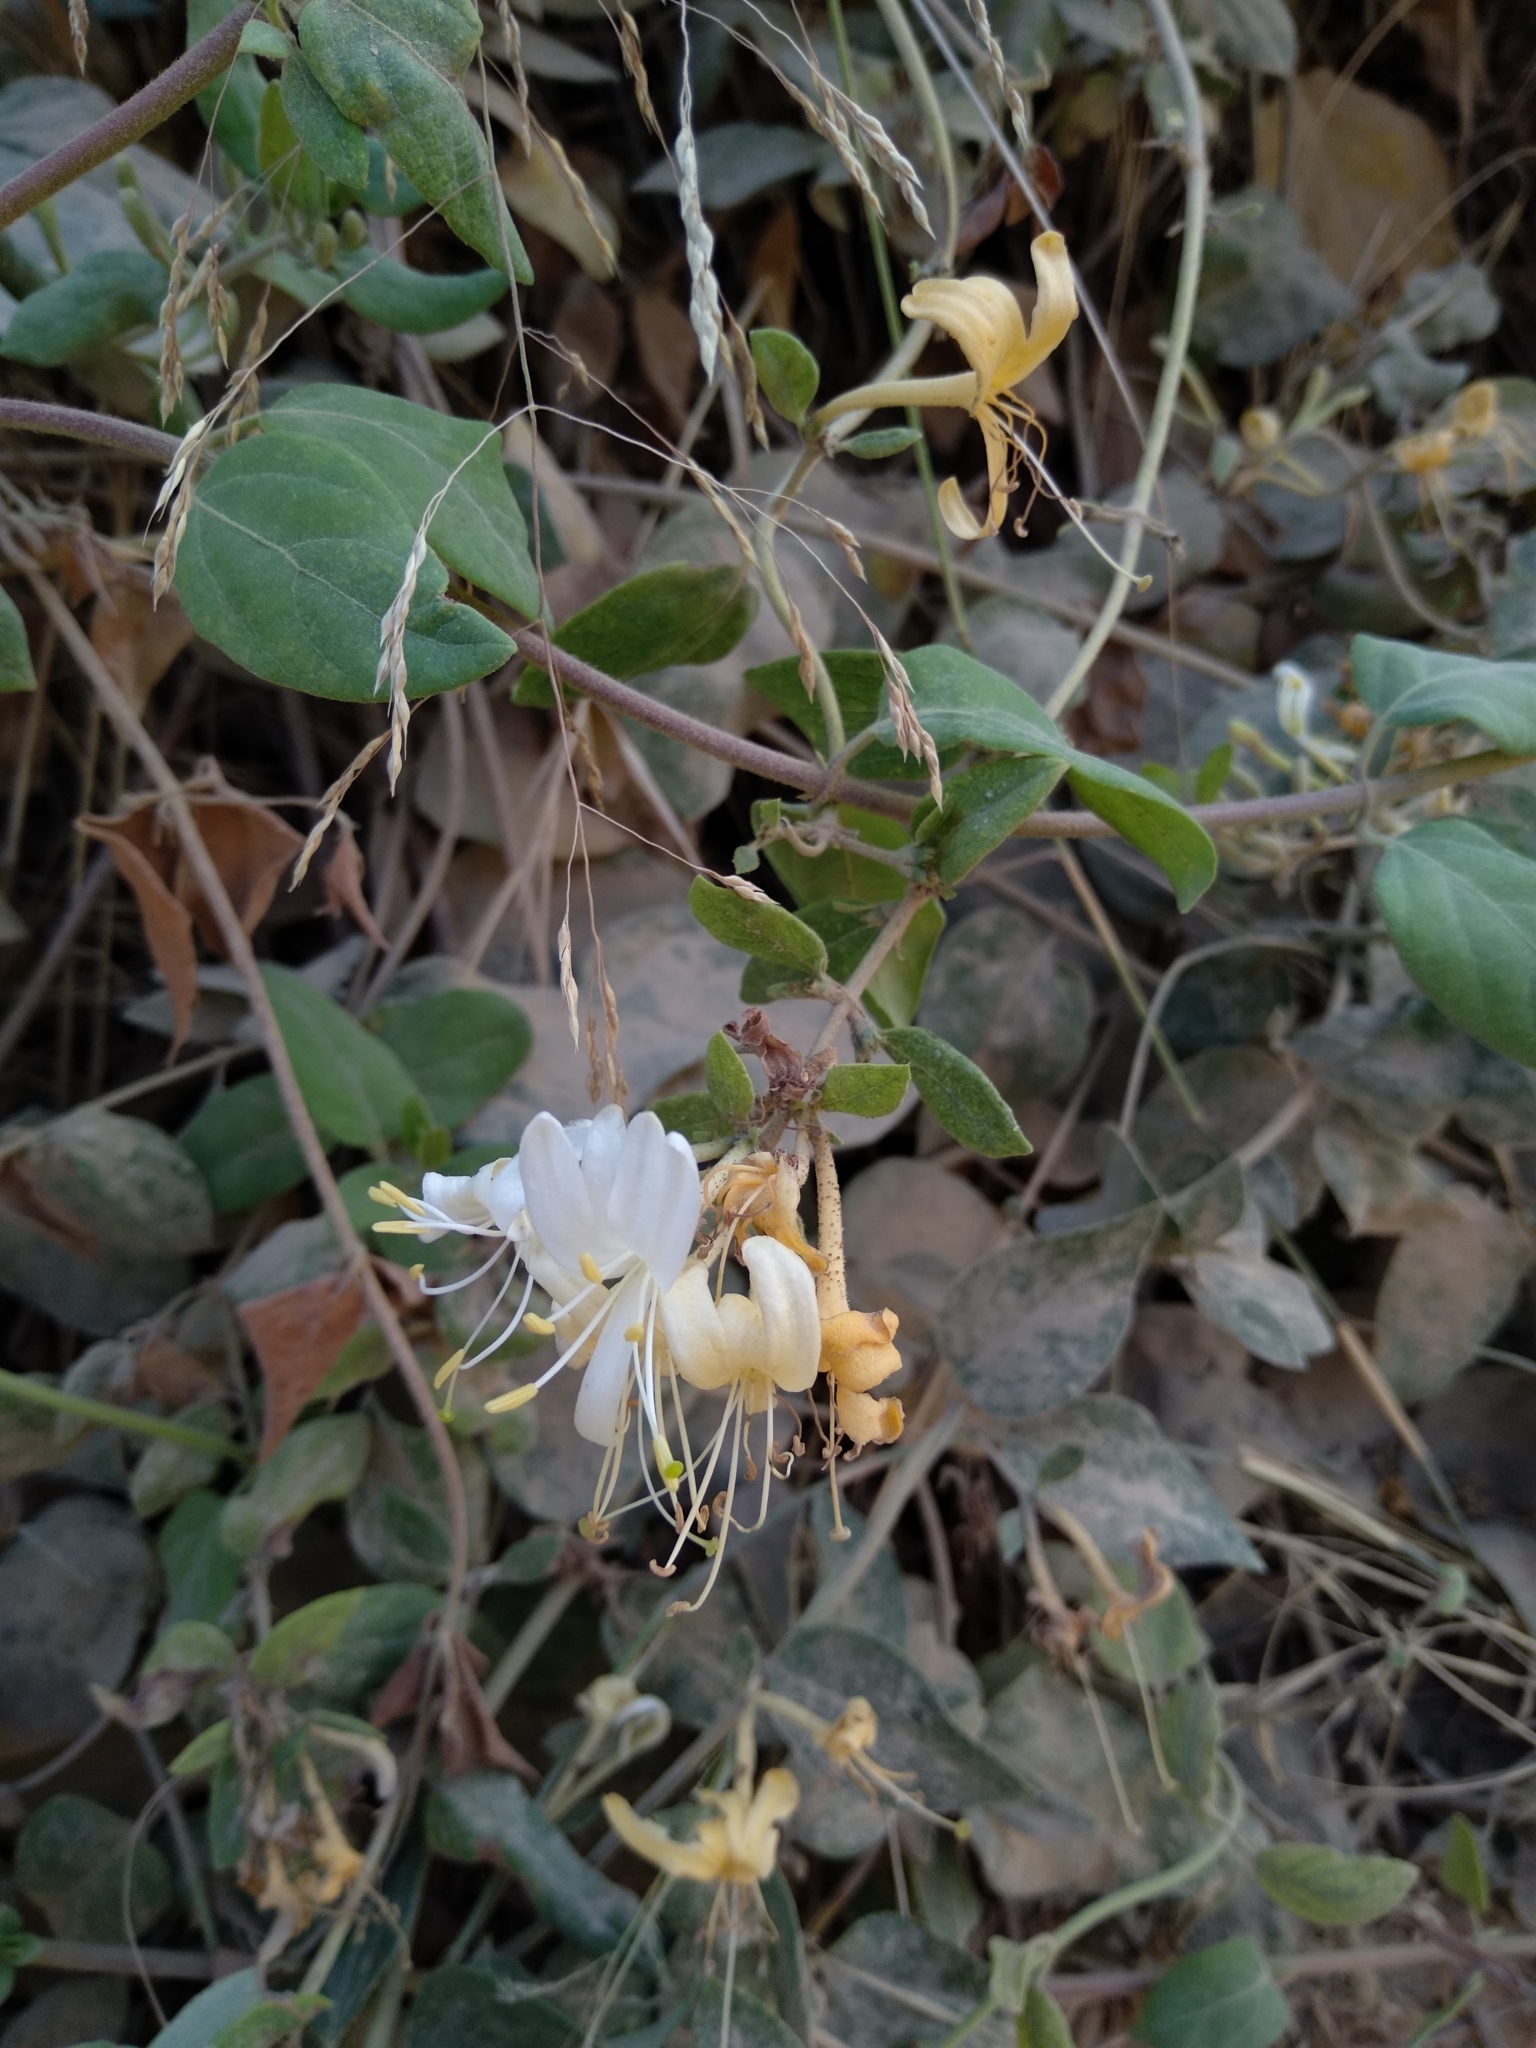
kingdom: Plantae
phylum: Tracheophyta
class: Magnoliopsida
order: Dipsacales
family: Caprifoliaceae
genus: Lonicera
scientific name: Lonicera japonica
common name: Japanese honeysuckle
